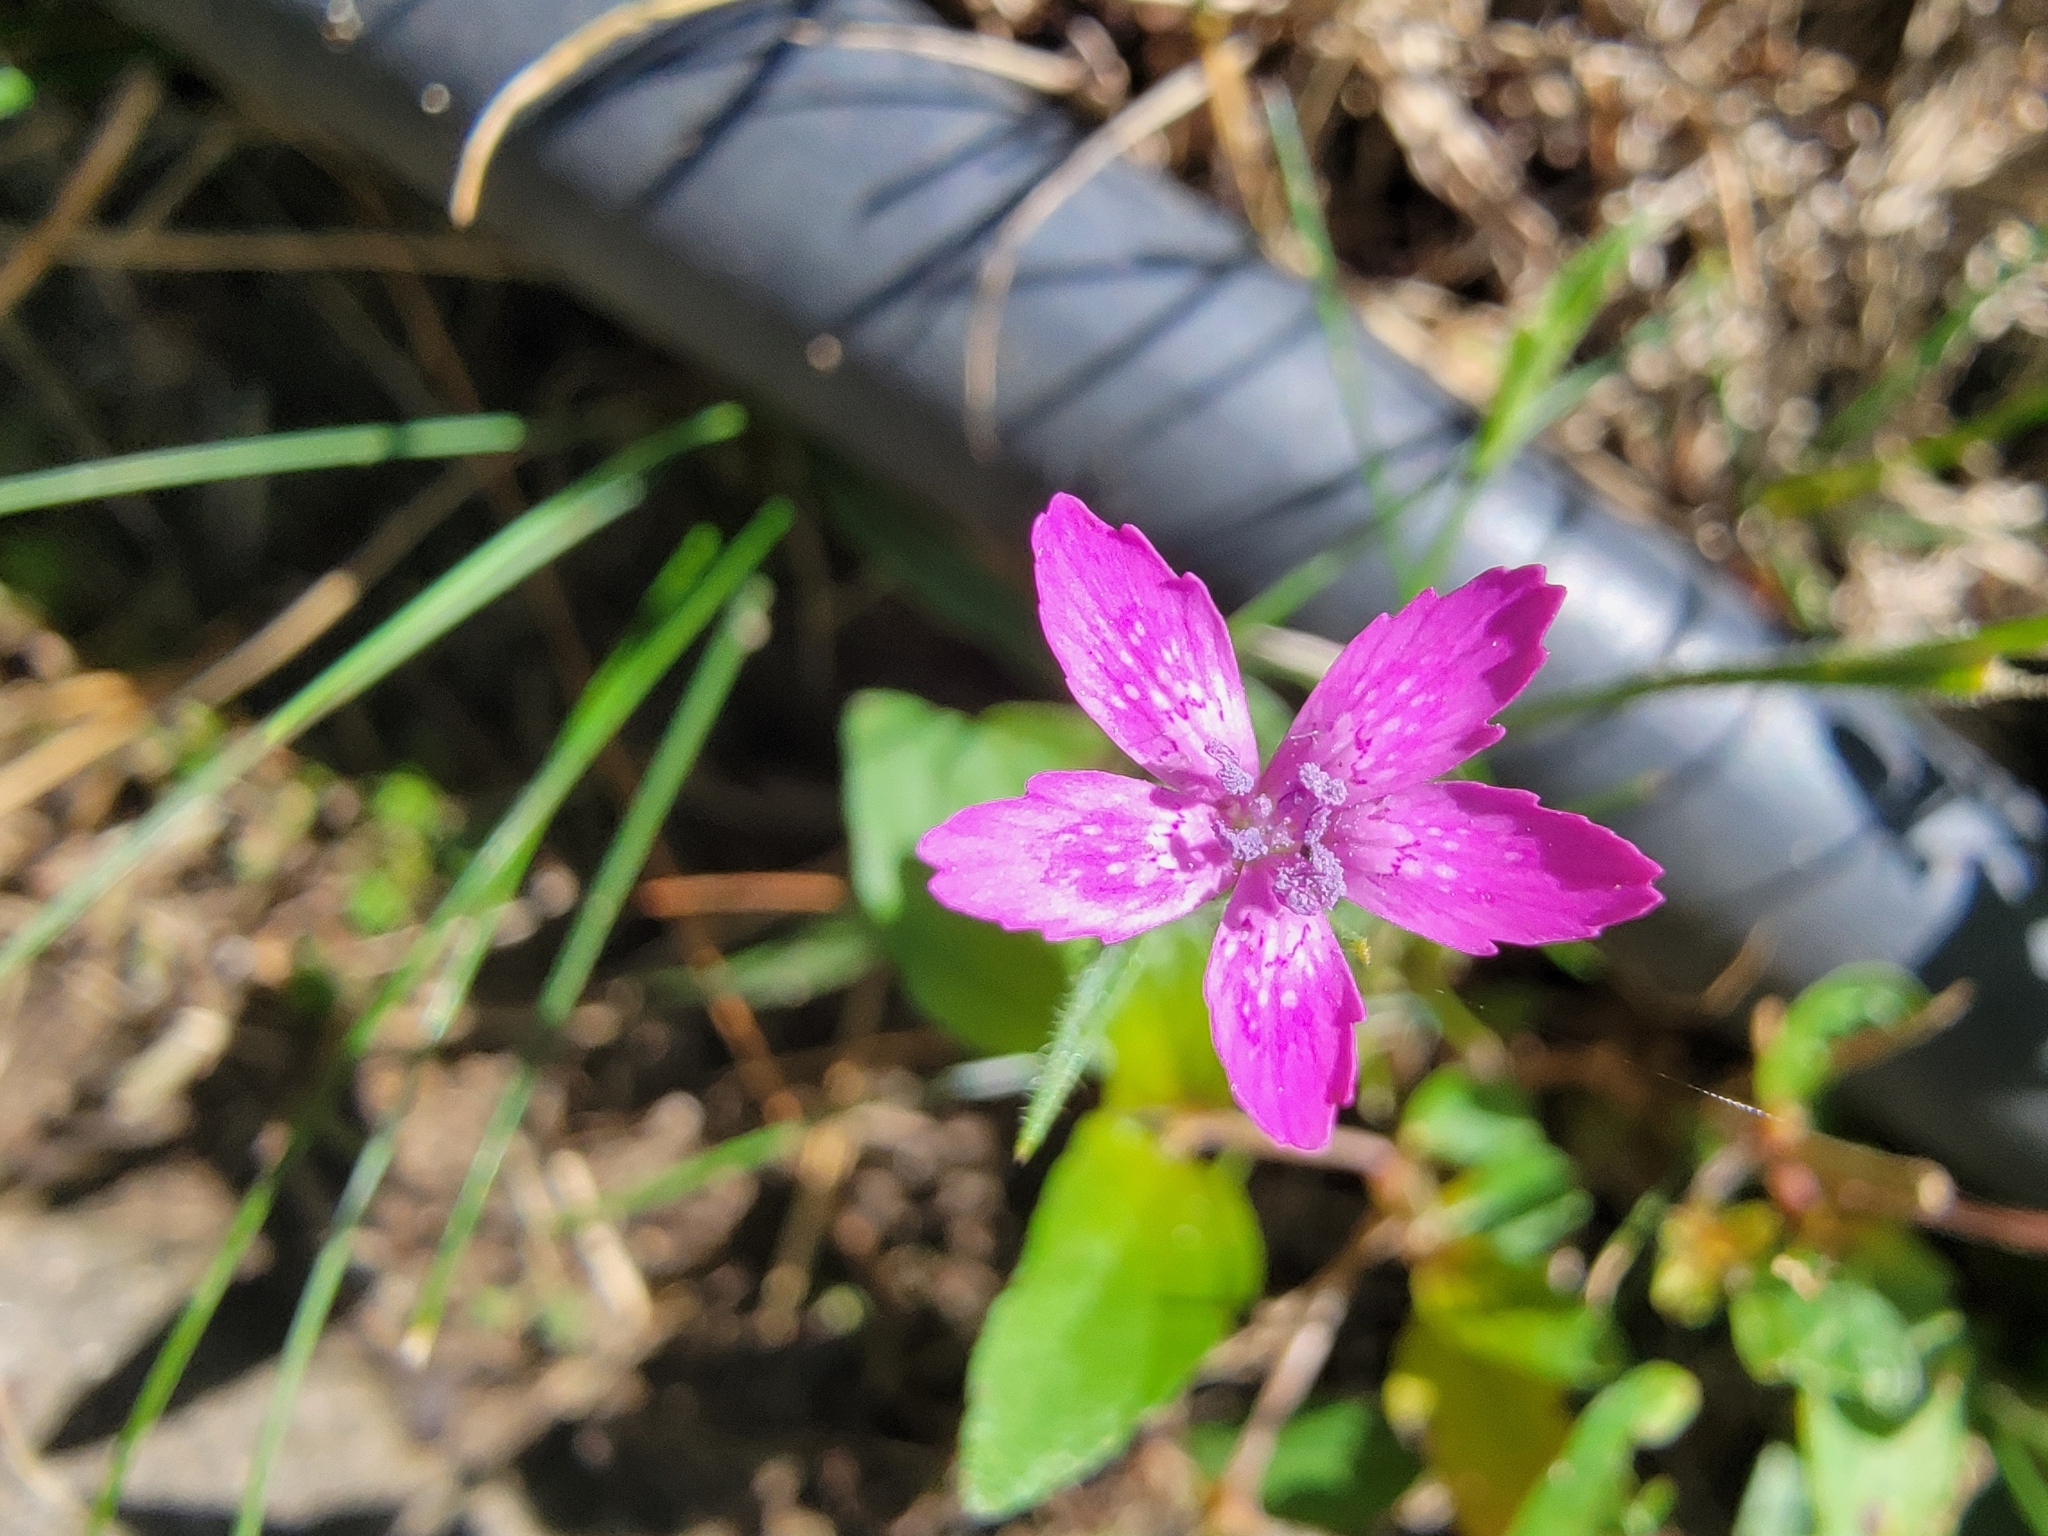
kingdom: Plantae
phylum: Tracheophyta
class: Magnoliopsida
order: Caryophyllales
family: Caryophyllaceae
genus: Dianthus
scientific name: Dianthus armeria
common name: Deptford pink
